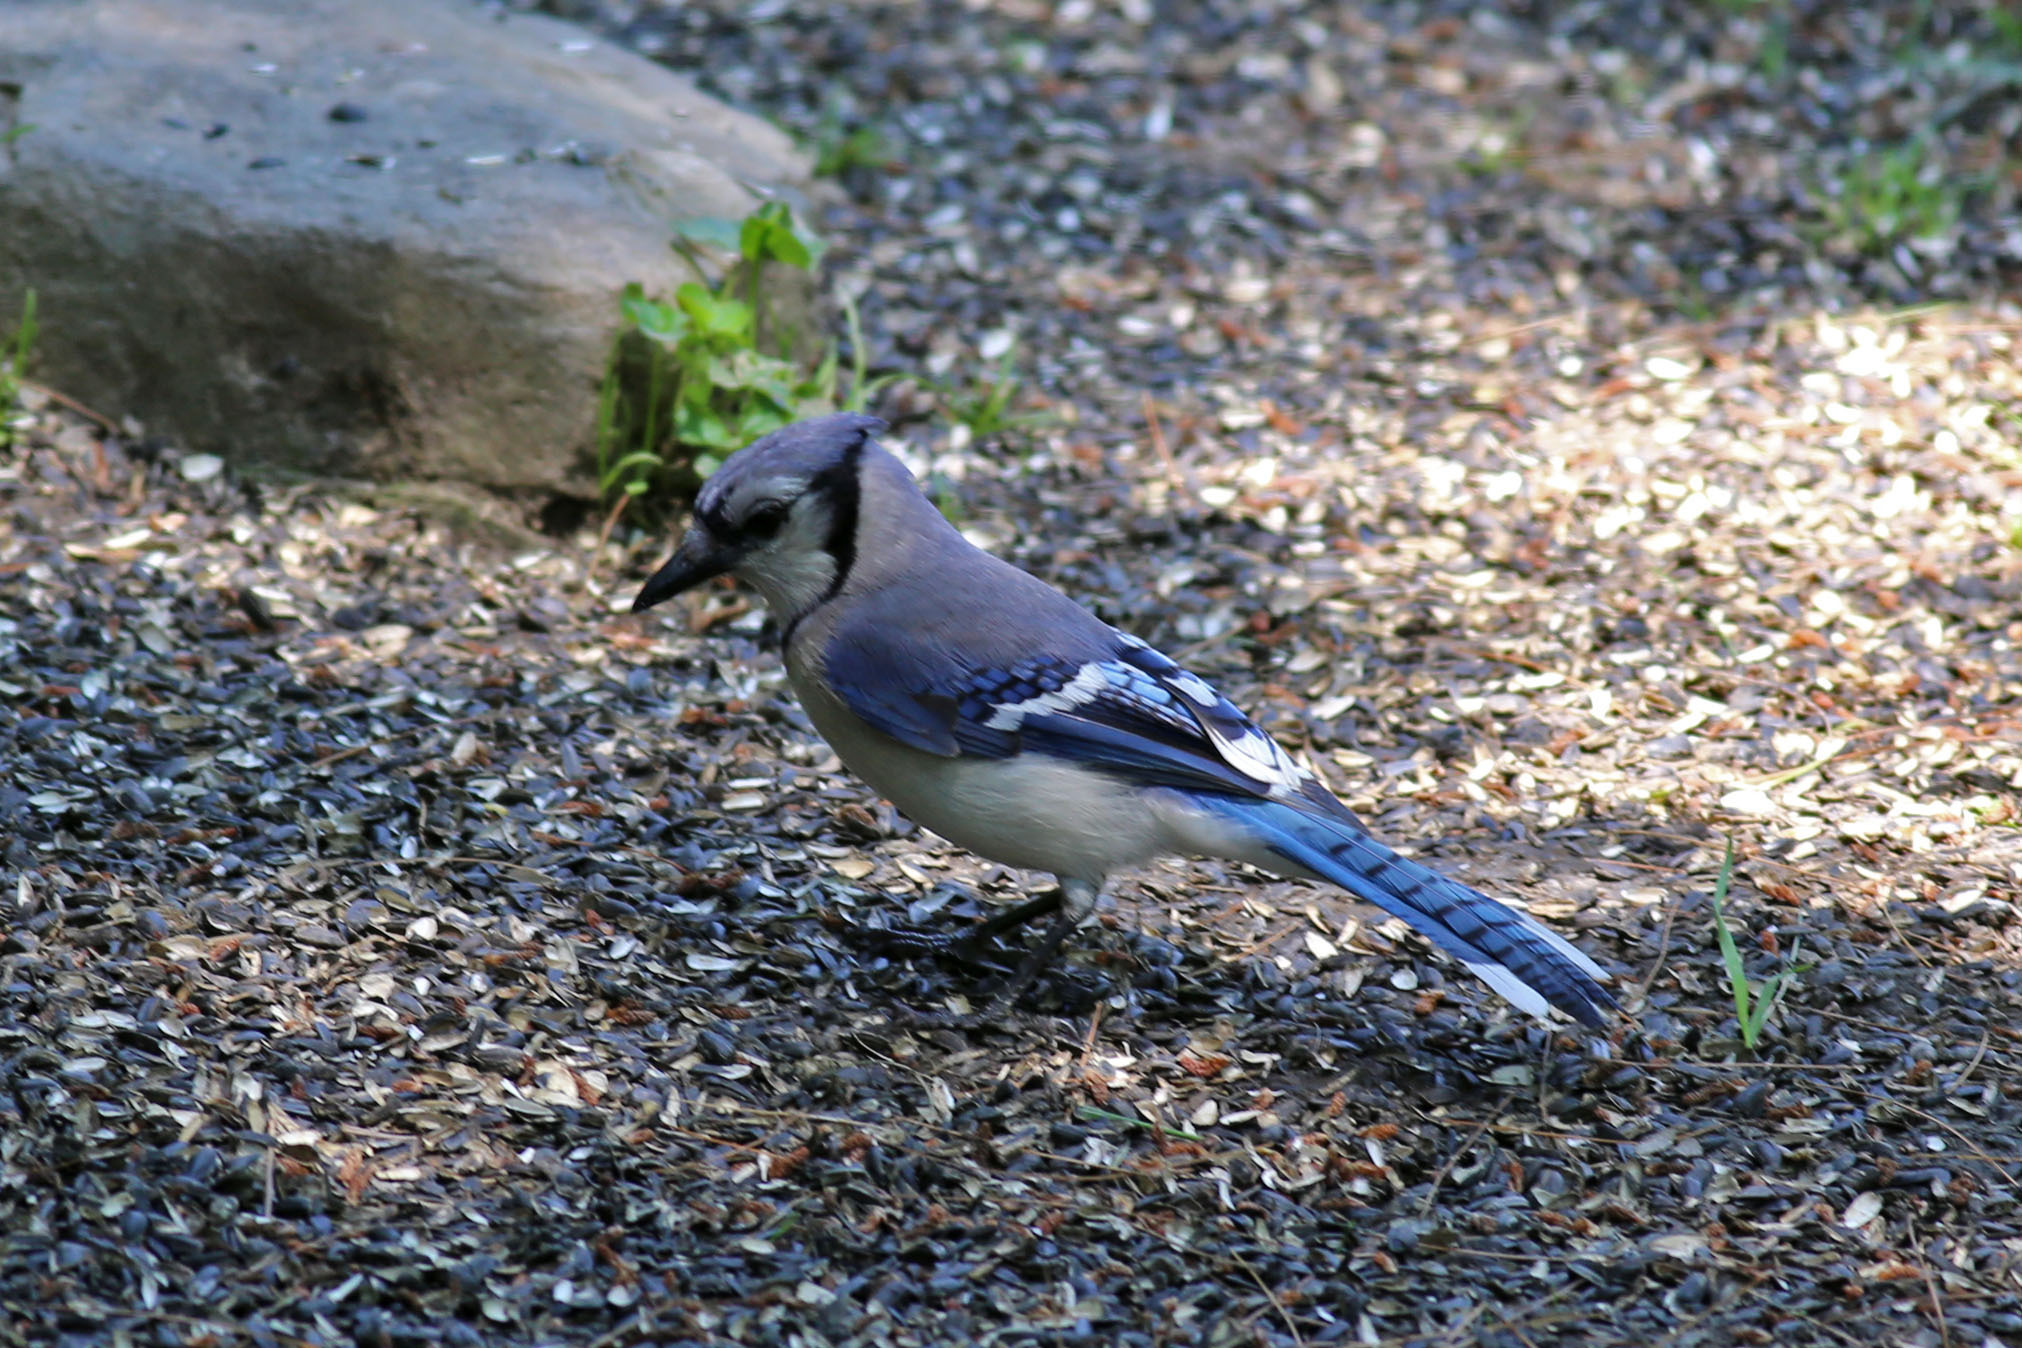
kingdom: Animalia
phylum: Chordata
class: Aves
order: Passeriformes
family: Corvidae
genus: Cyanocitta
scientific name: Cyanocitta cristata
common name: Blue jay
